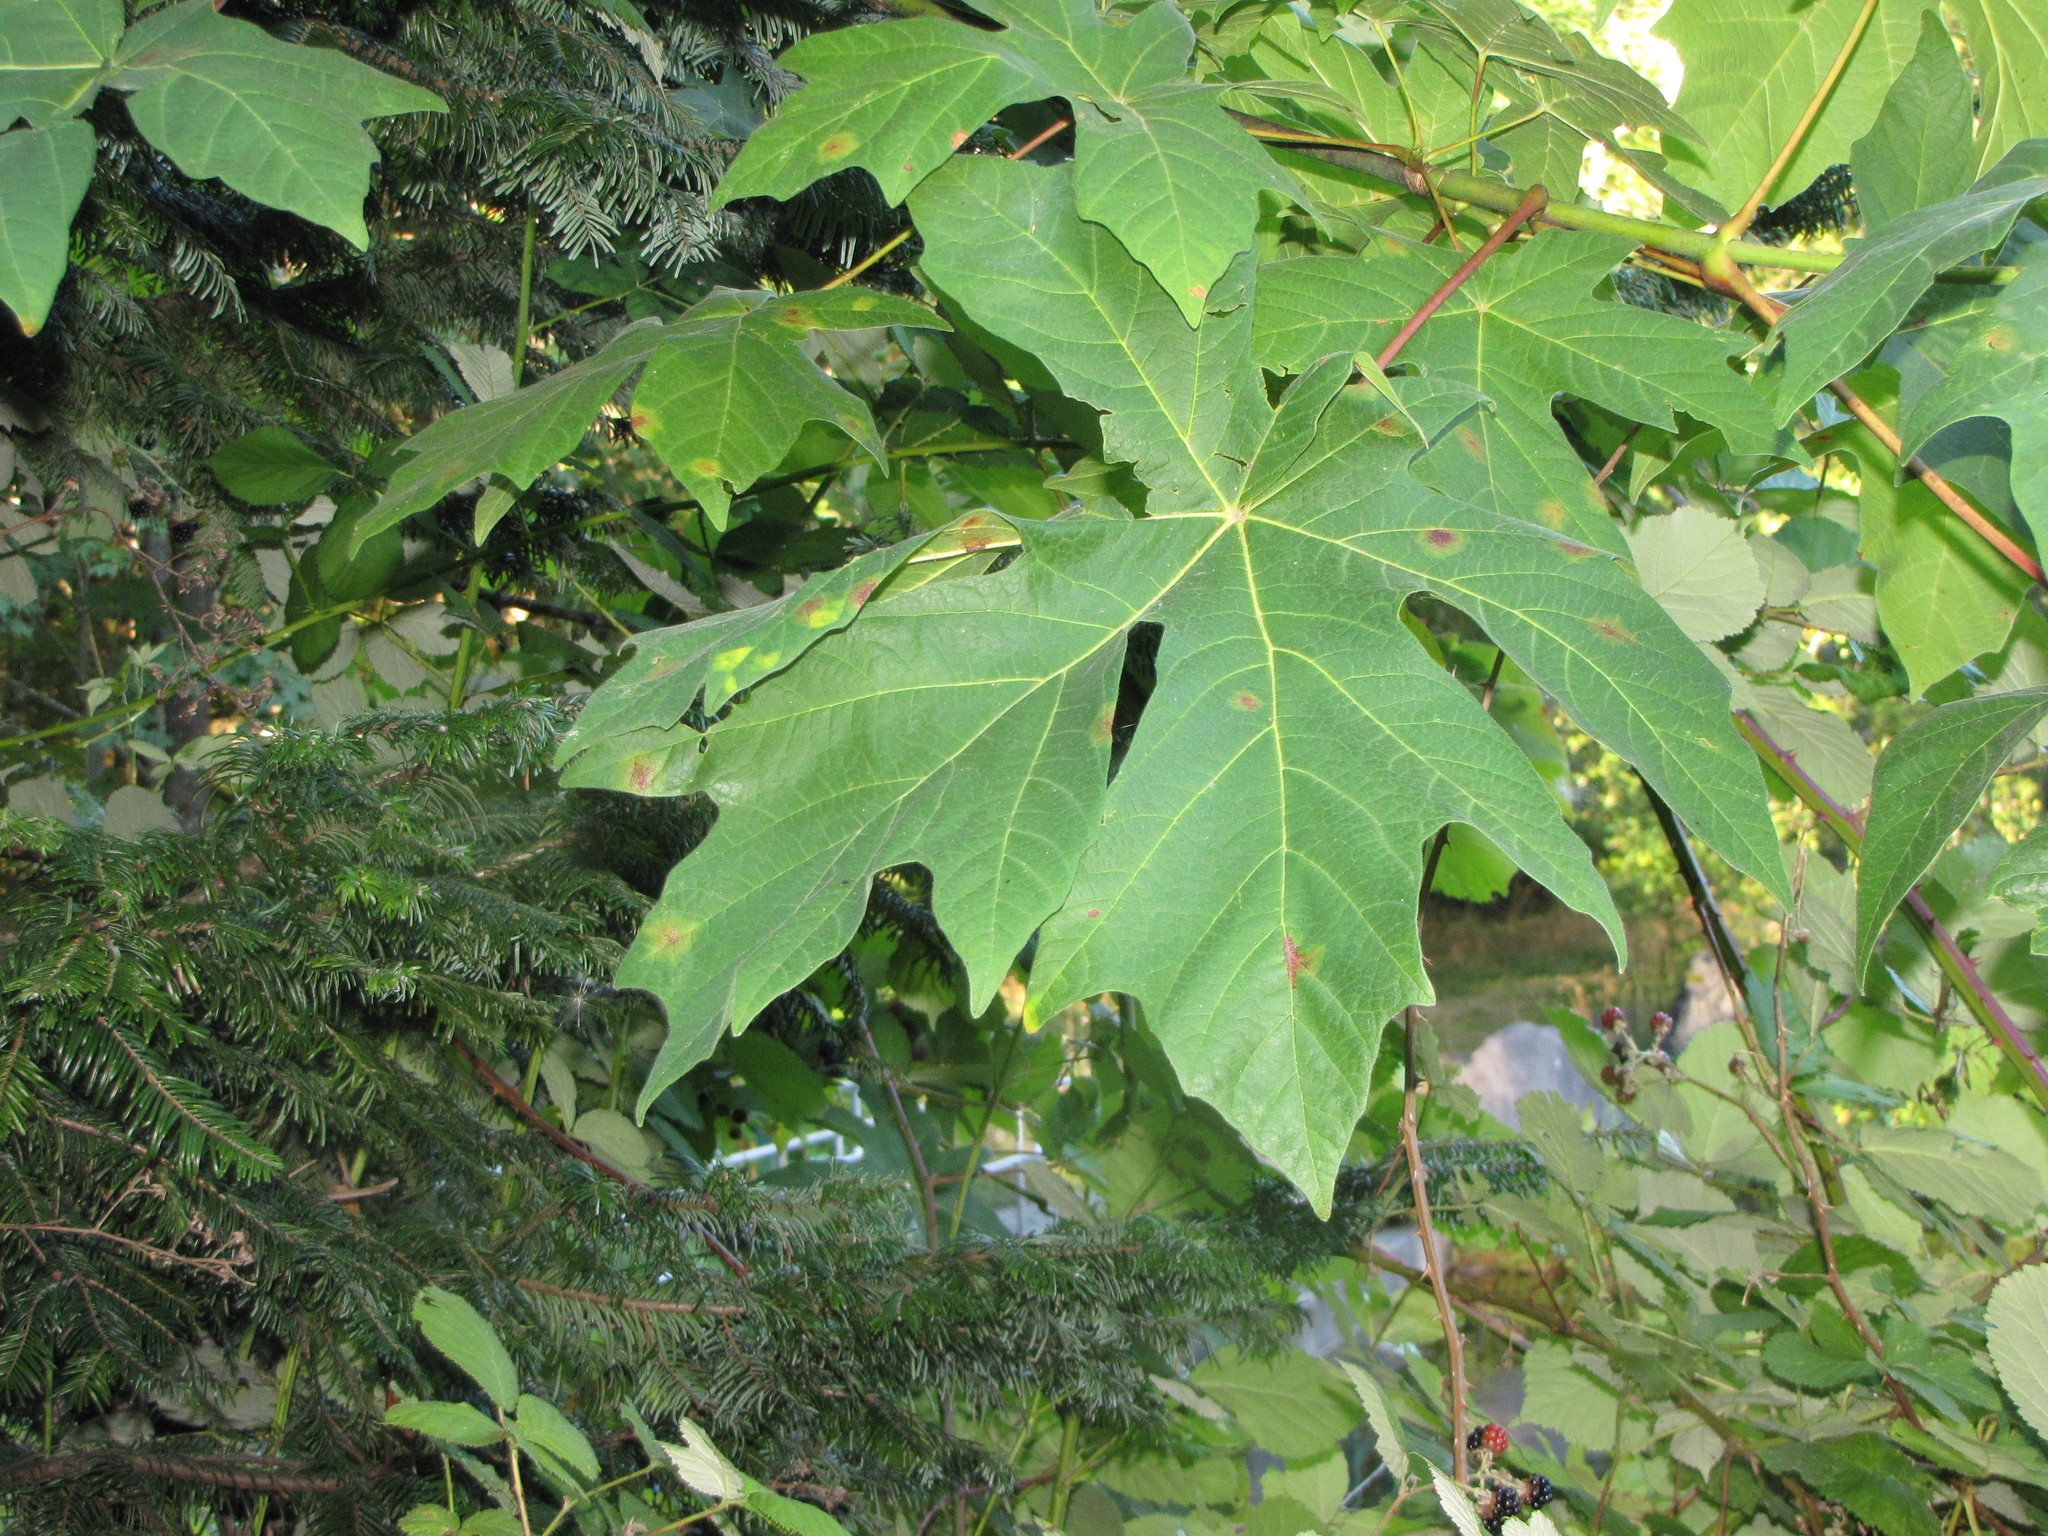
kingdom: Plantae
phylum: Tracheophyta
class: Magnoliopsida
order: Sapindales
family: Sapindaceae
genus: Acer
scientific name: Acer macrophyllum
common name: Oregon maple
